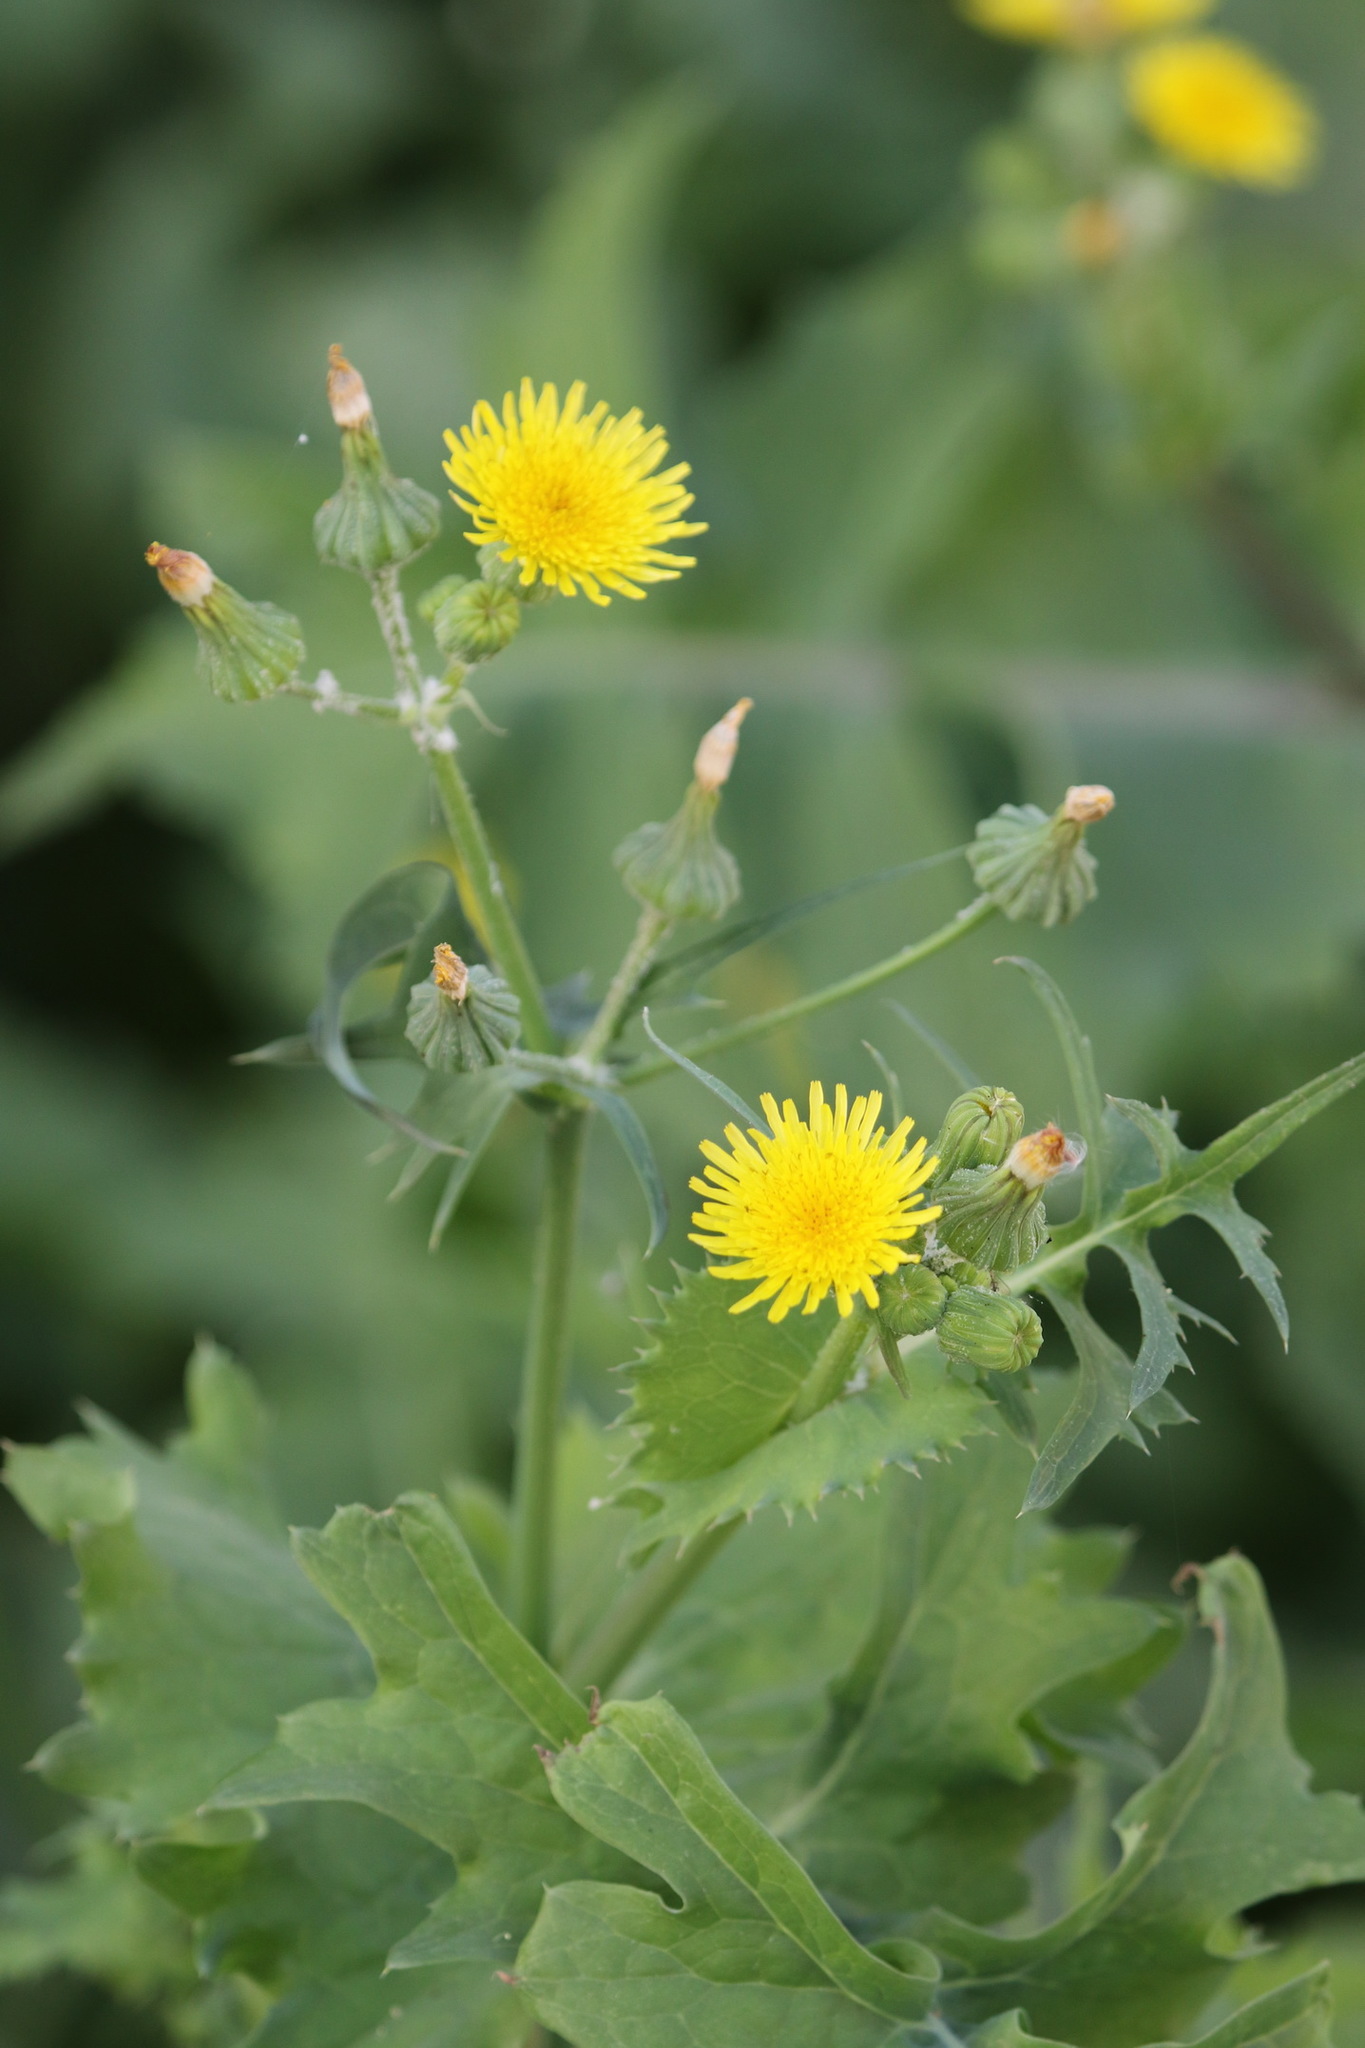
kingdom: Plantae
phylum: Tracheophyta
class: Magnoliopsida
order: Asterales
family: Asteraceae
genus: Sonchus
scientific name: Sonchus oleraceus
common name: Common sowthistle
